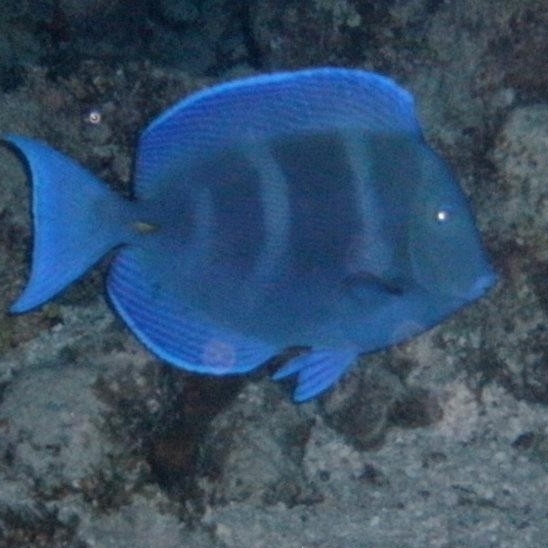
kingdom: Animalia
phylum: Chordata
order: Perciformes
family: Acanthuridae
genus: Acanthurus
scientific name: Acanthurus coeruleus
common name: Blue tang
